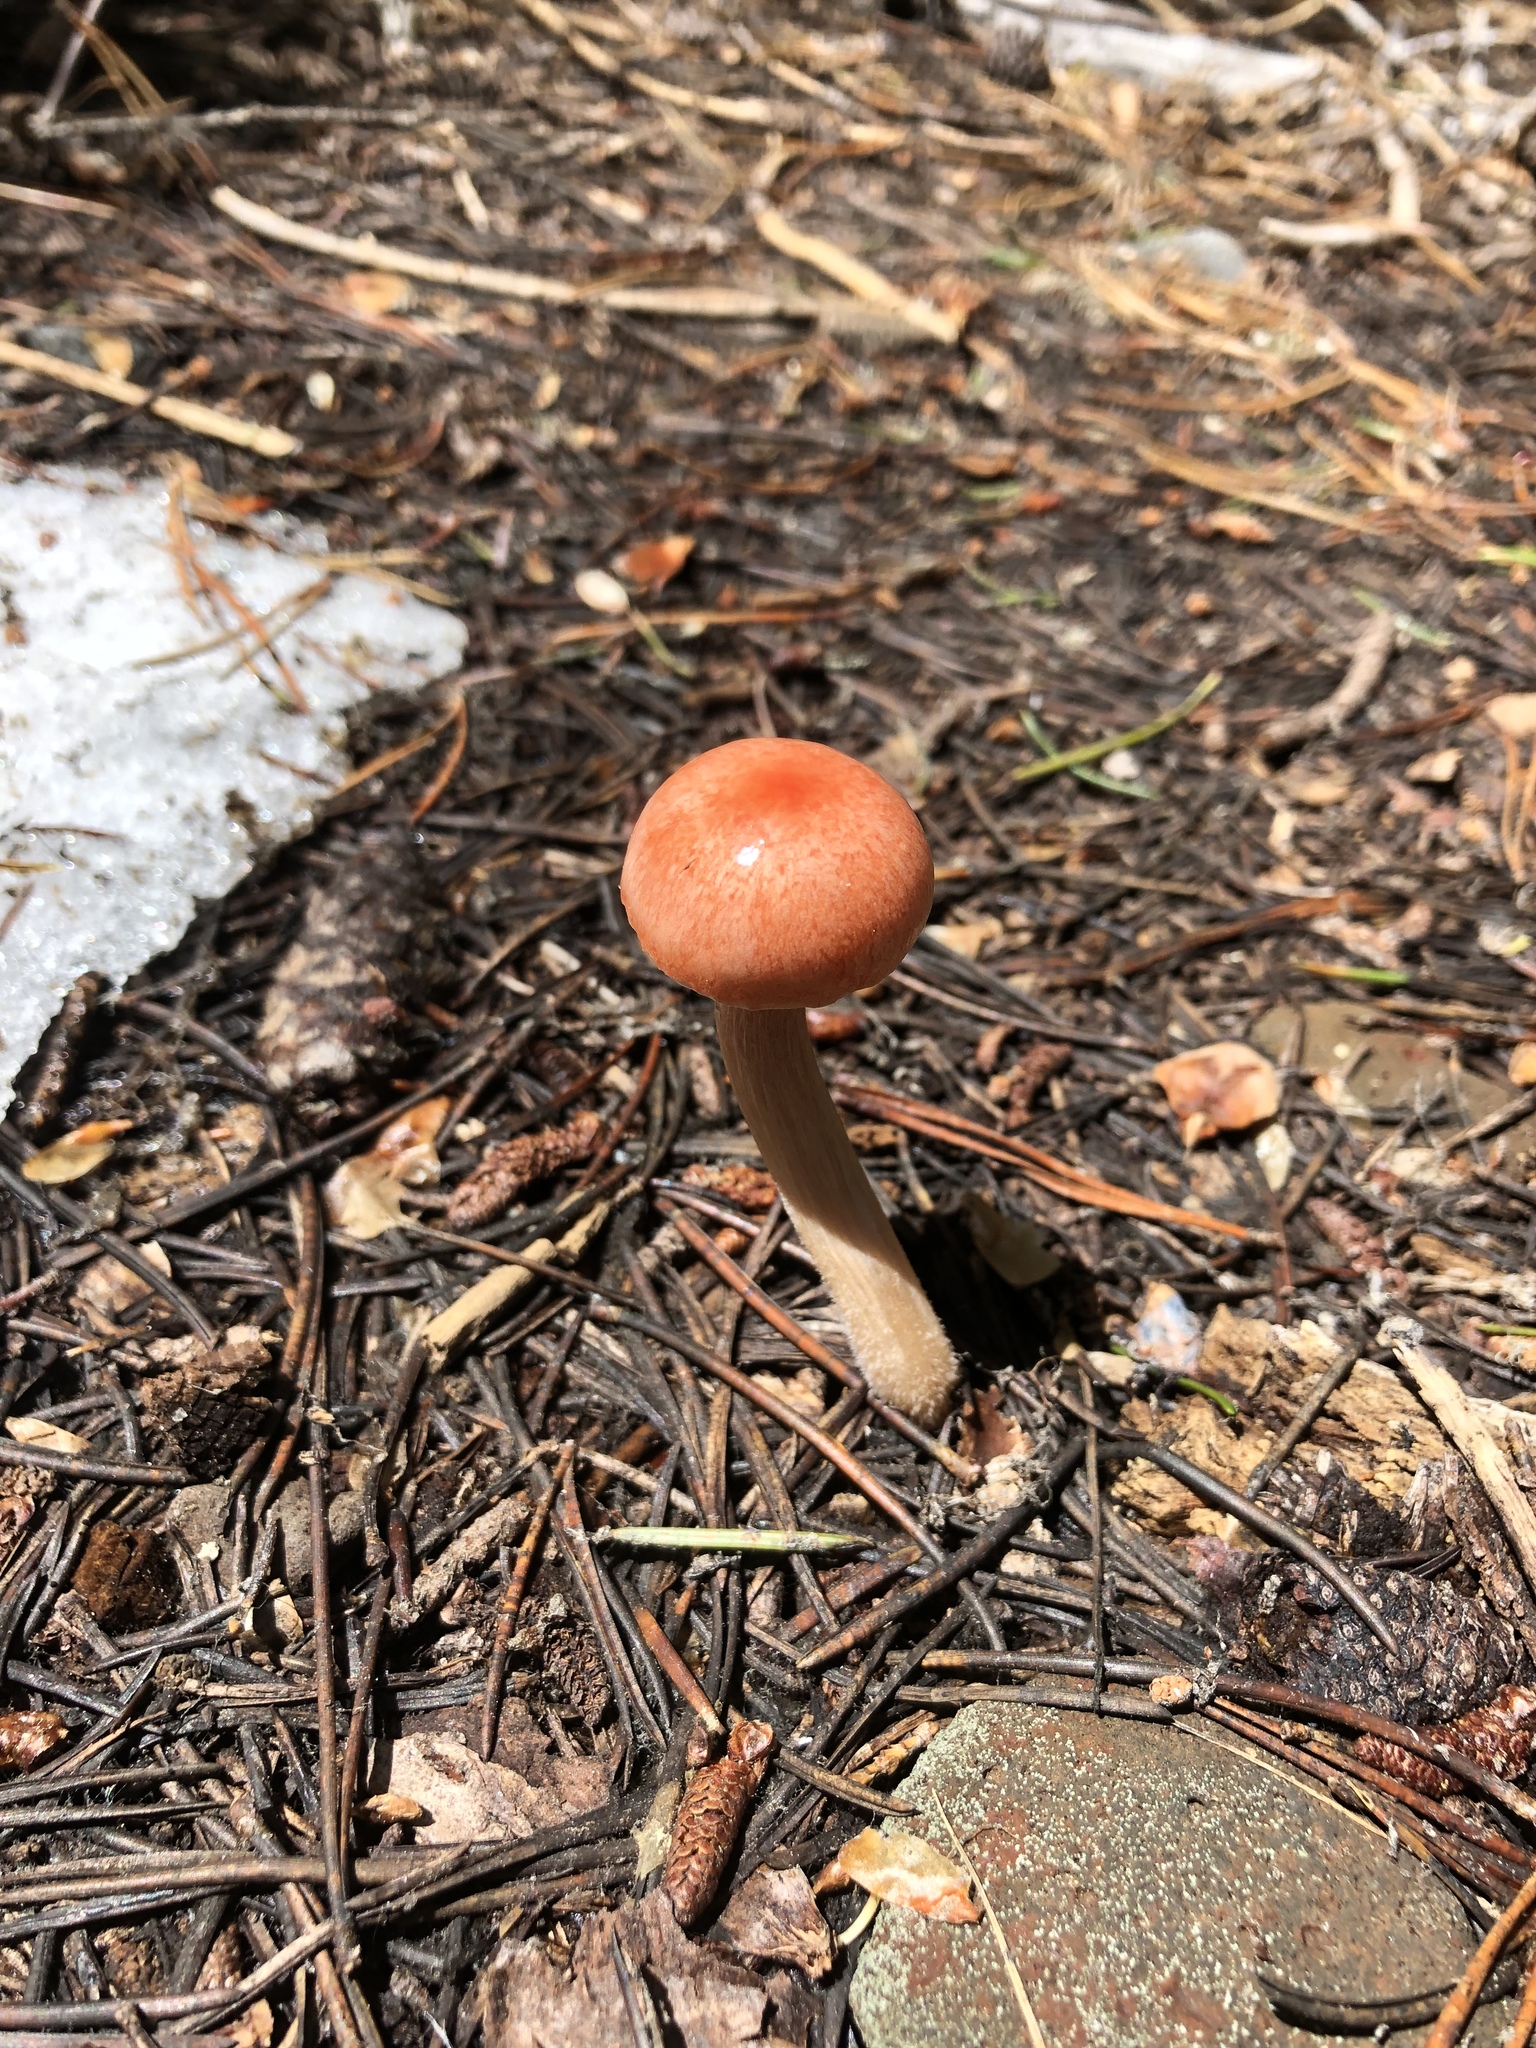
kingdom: Fungi
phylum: Basidiomycota
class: Agaricomycetes
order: Agaricales
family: Hygrophoraceae
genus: Hygrophorus
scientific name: Hygrophorus goetzei
